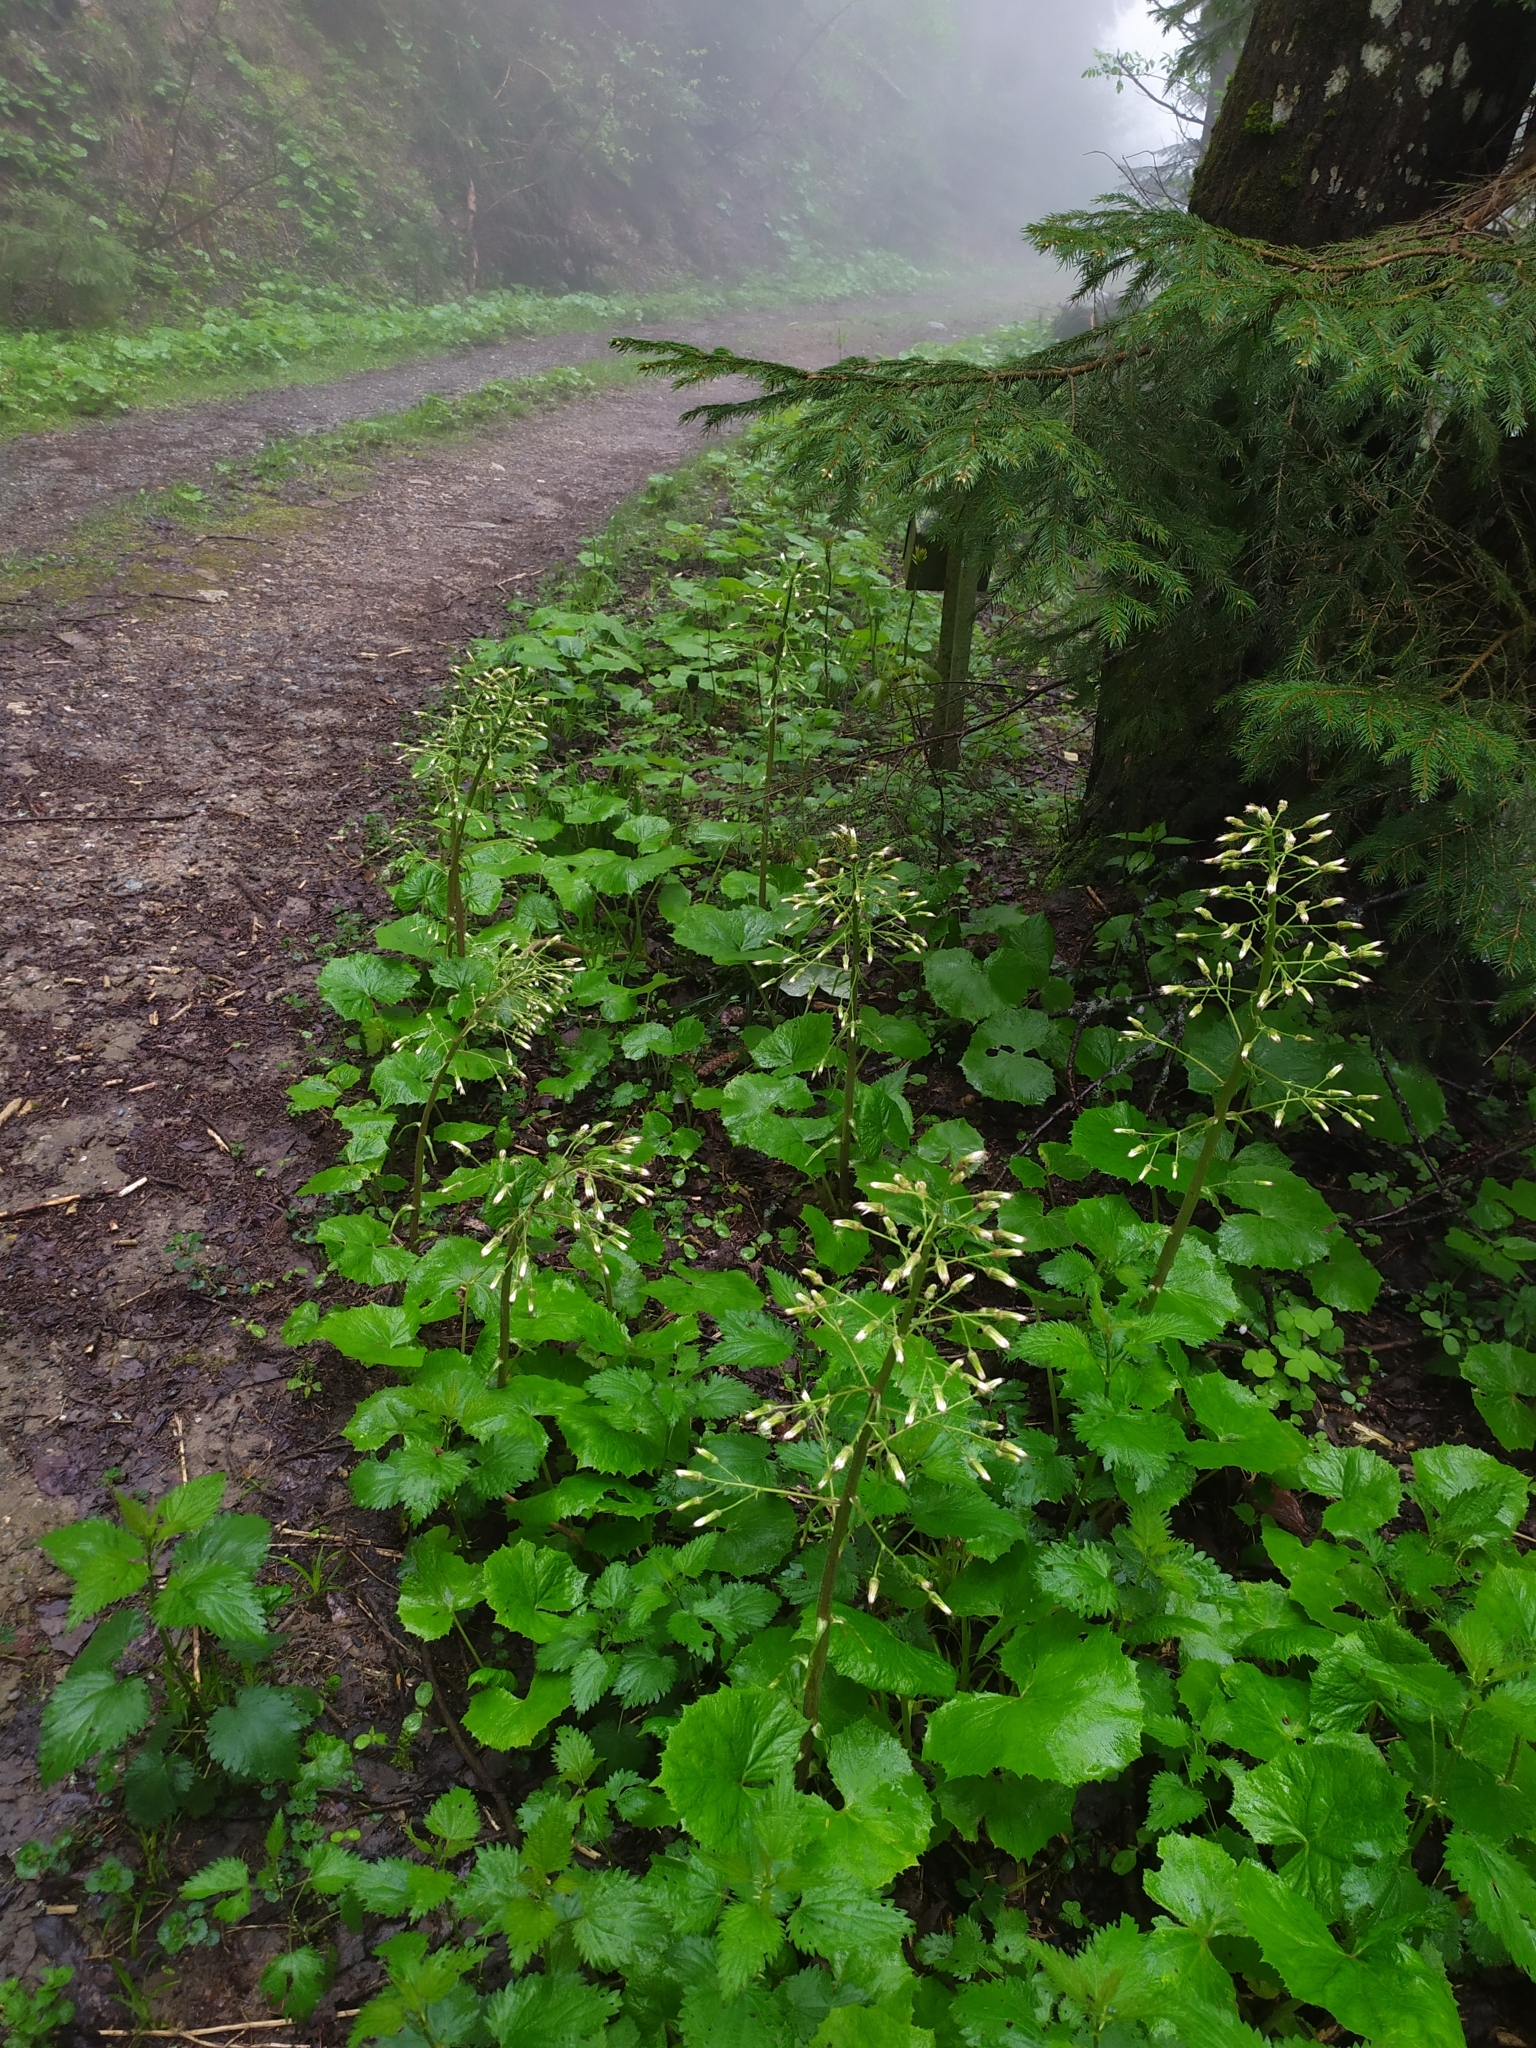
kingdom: Plantae
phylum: Tracheophyta
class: Magnoliopsida
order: Asterales
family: Asteraceae
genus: Petasites
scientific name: Petasites albus
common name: White butterbur
